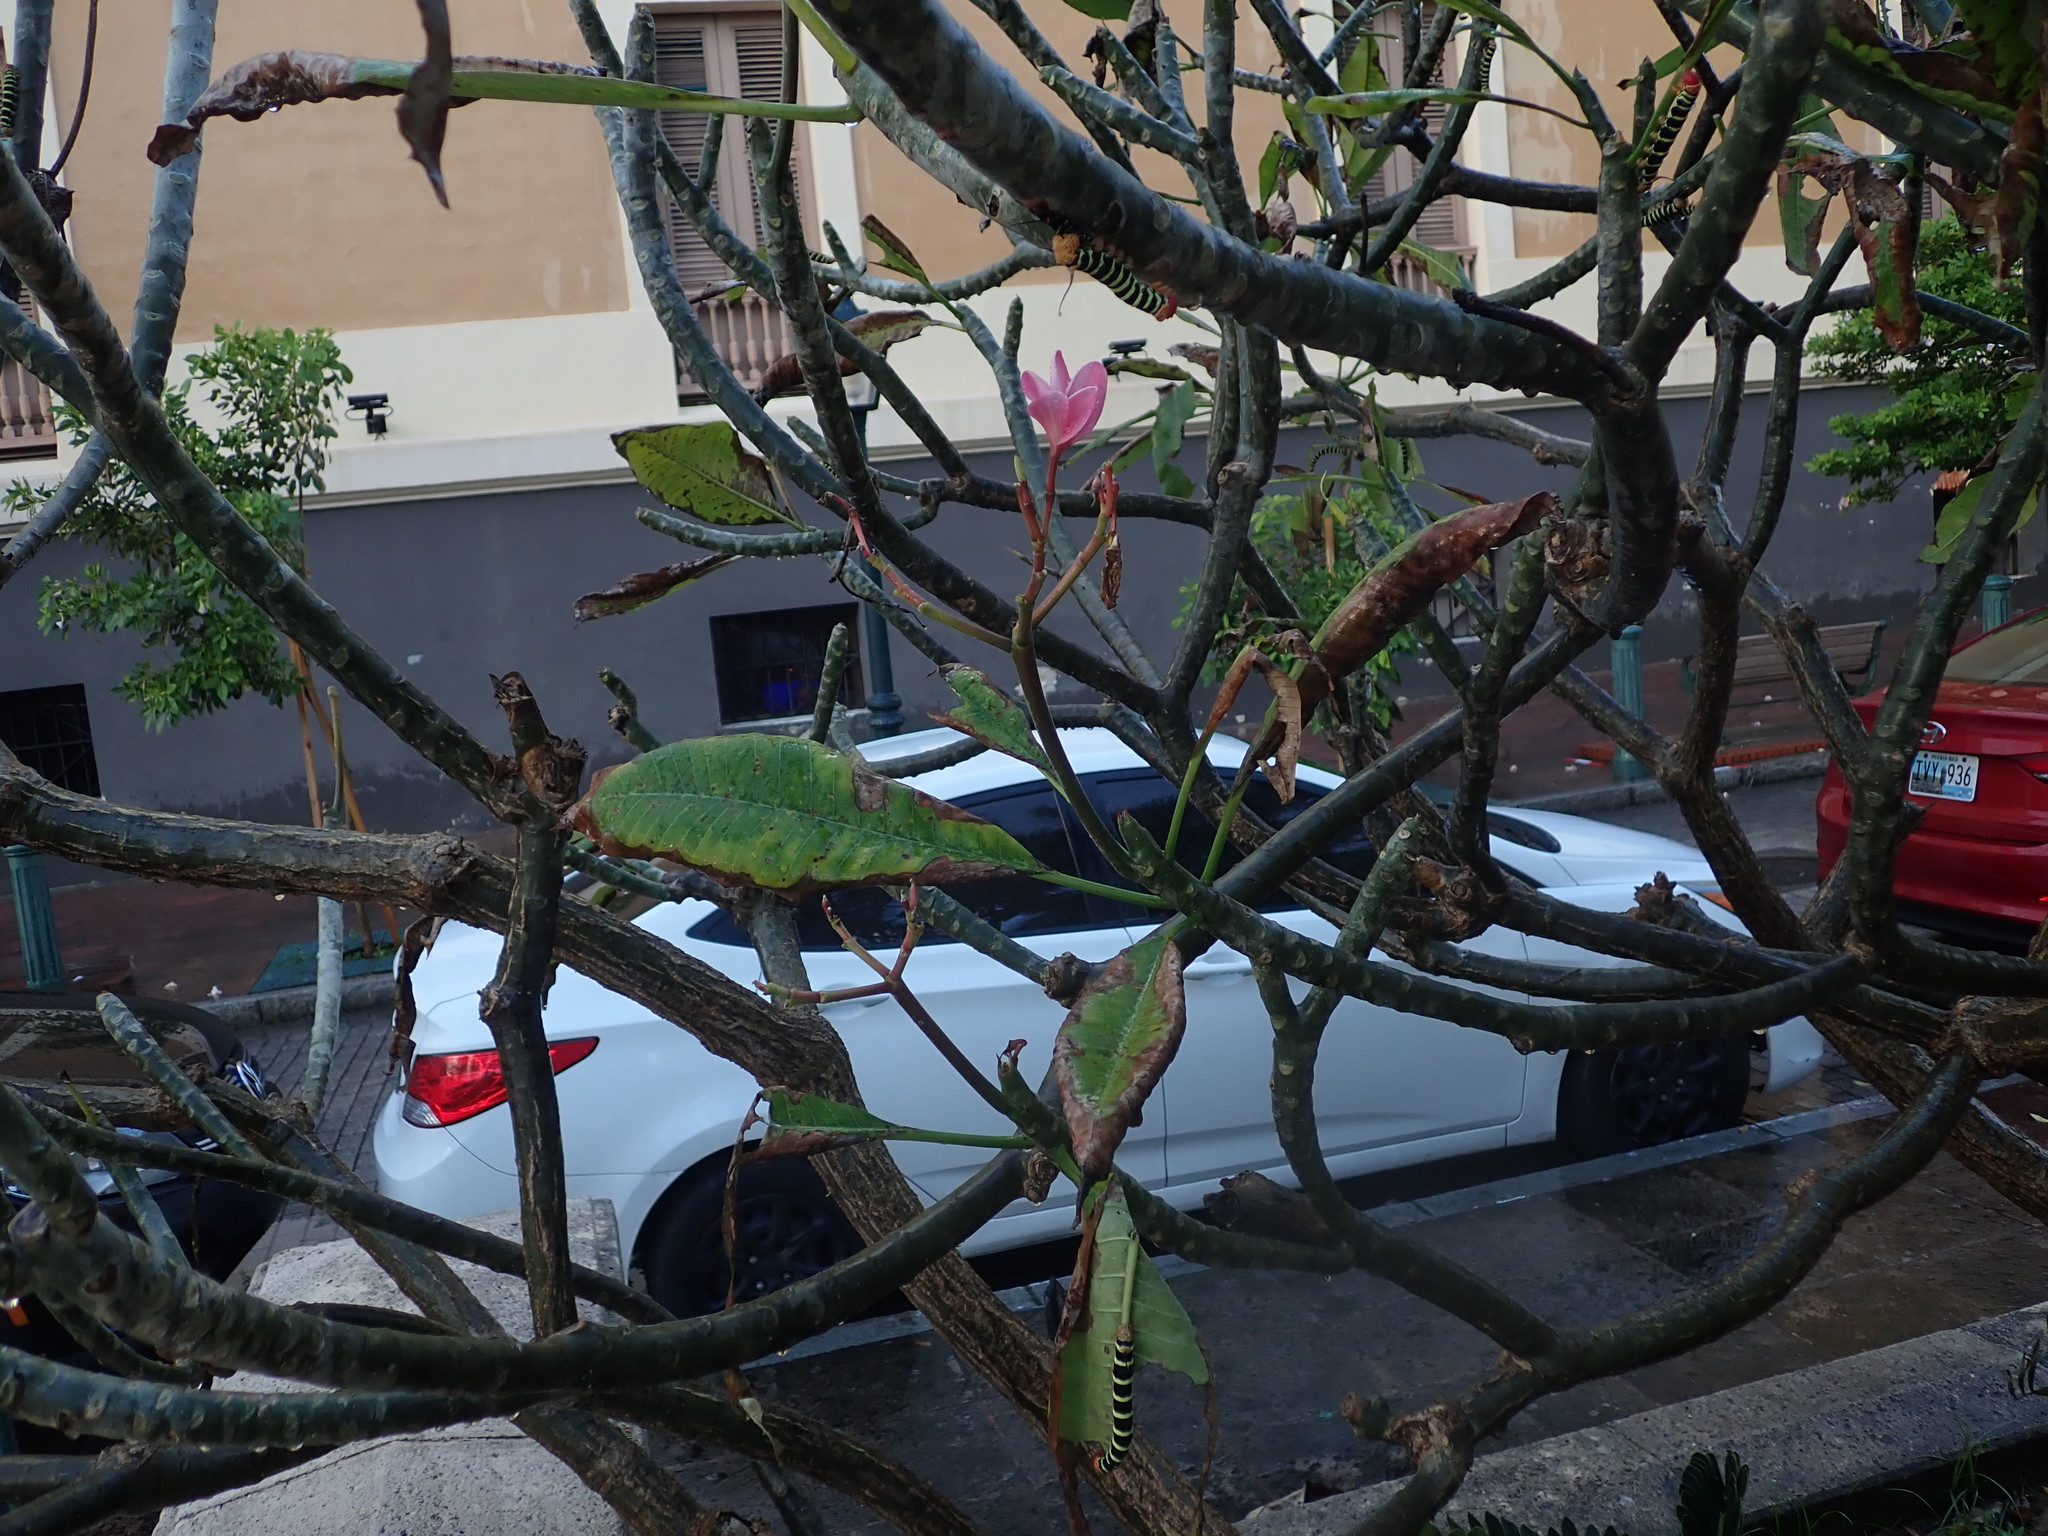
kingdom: Animalia
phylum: Arthropoda
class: Insecta
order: Lepidoptera
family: Sphingidae
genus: Pseudosphinx
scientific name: Pseudosphinx tetrio
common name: Tetrio sphinx
